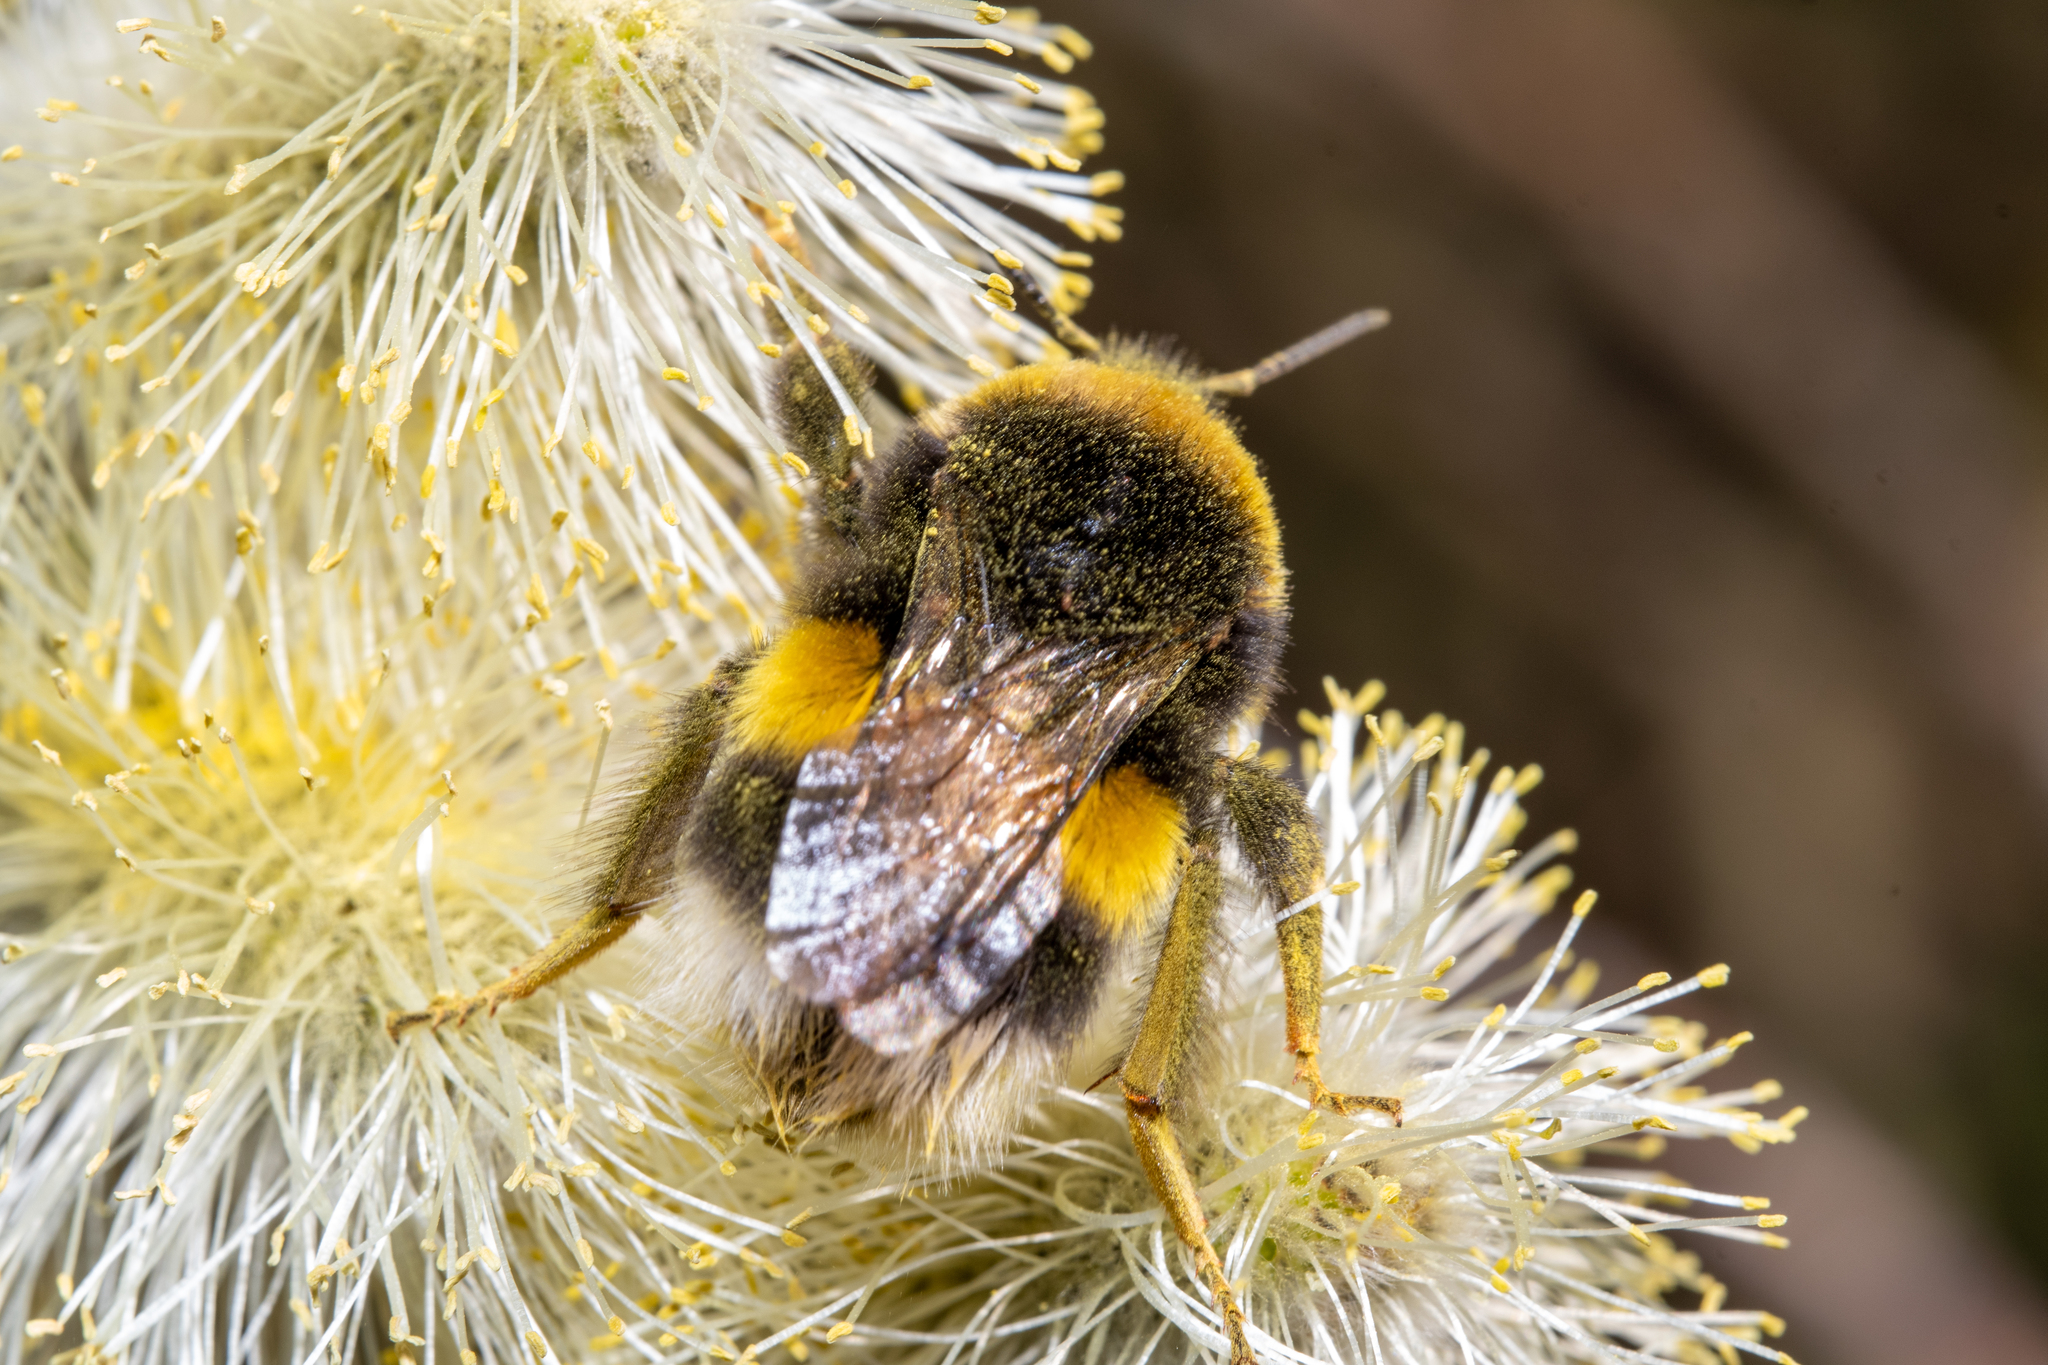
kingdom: Animalia
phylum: Arthropoda
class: Insecta
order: Hymenoptera
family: Apidae
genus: Bombus
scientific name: Bombus
